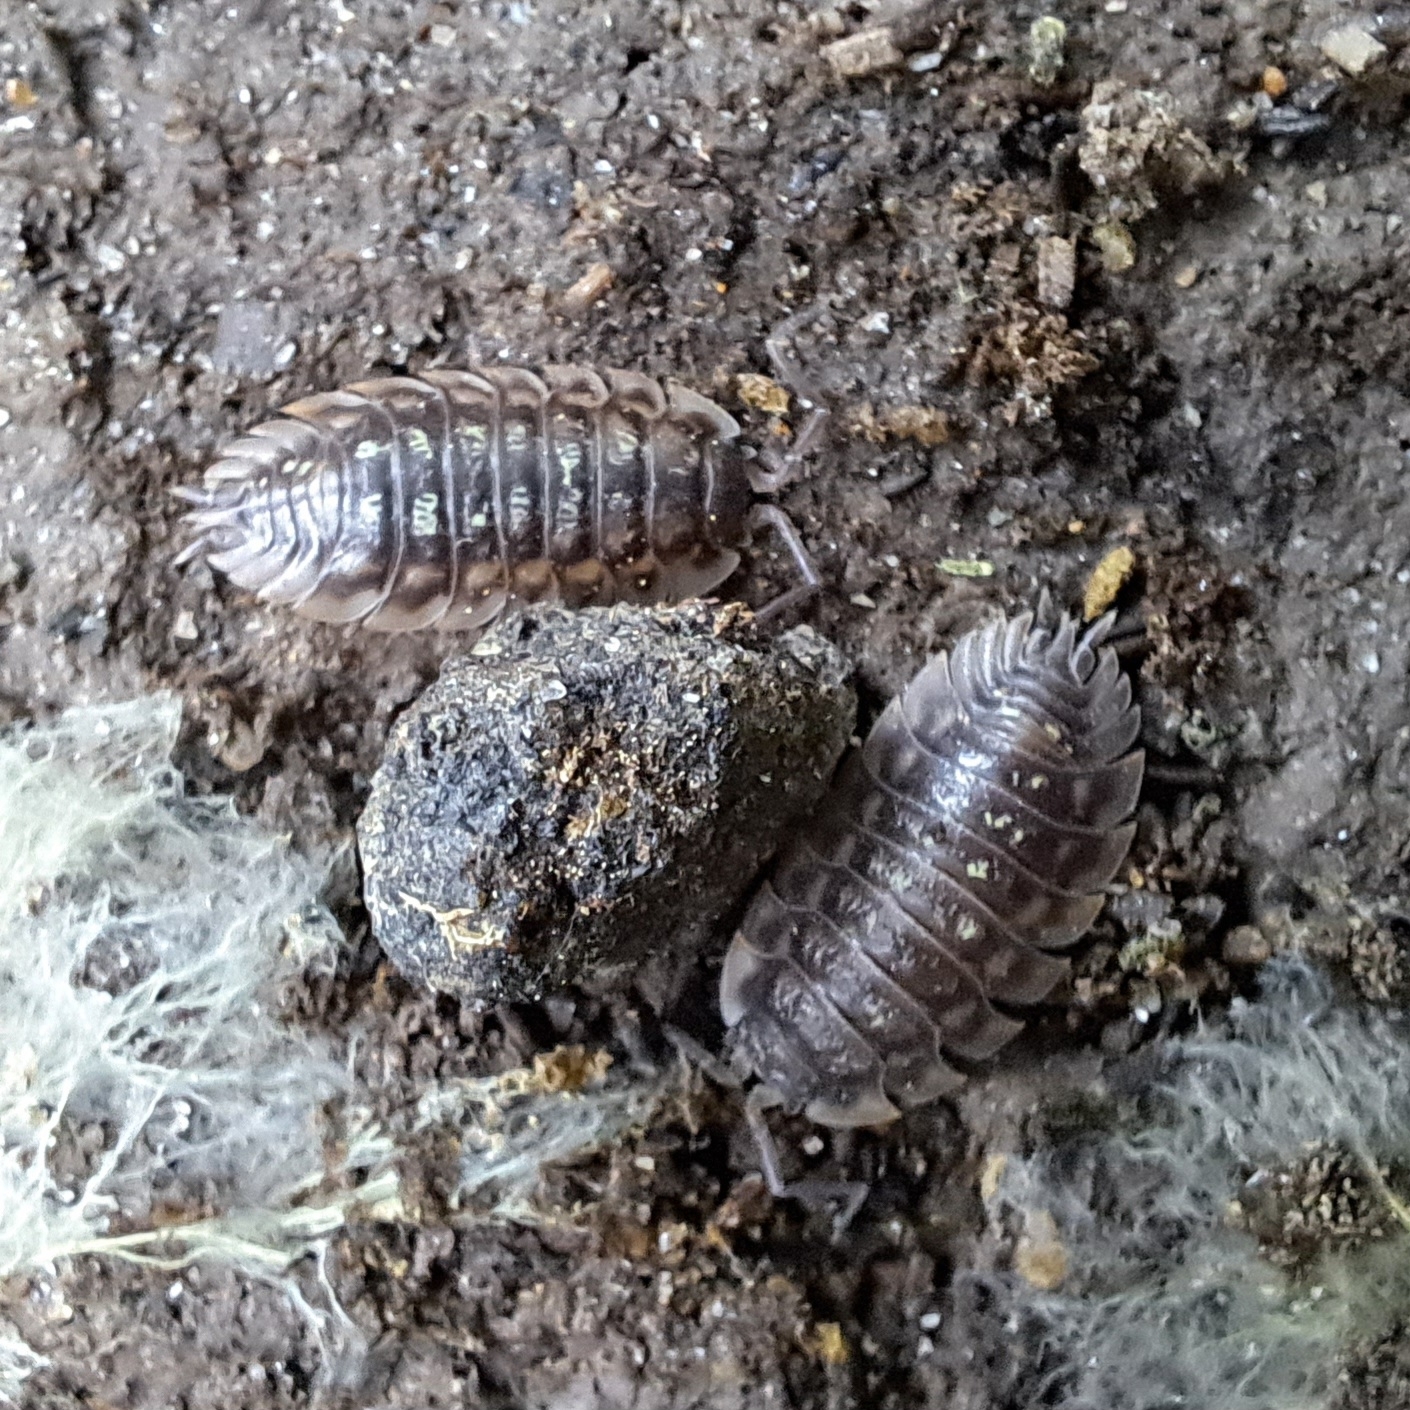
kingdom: Animalia
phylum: Arthropoda
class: Malacostraca
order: Isopoda
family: Oniscidae
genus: Oniscus
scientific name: Oniscus asellus
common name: Common shiny woodlouse
